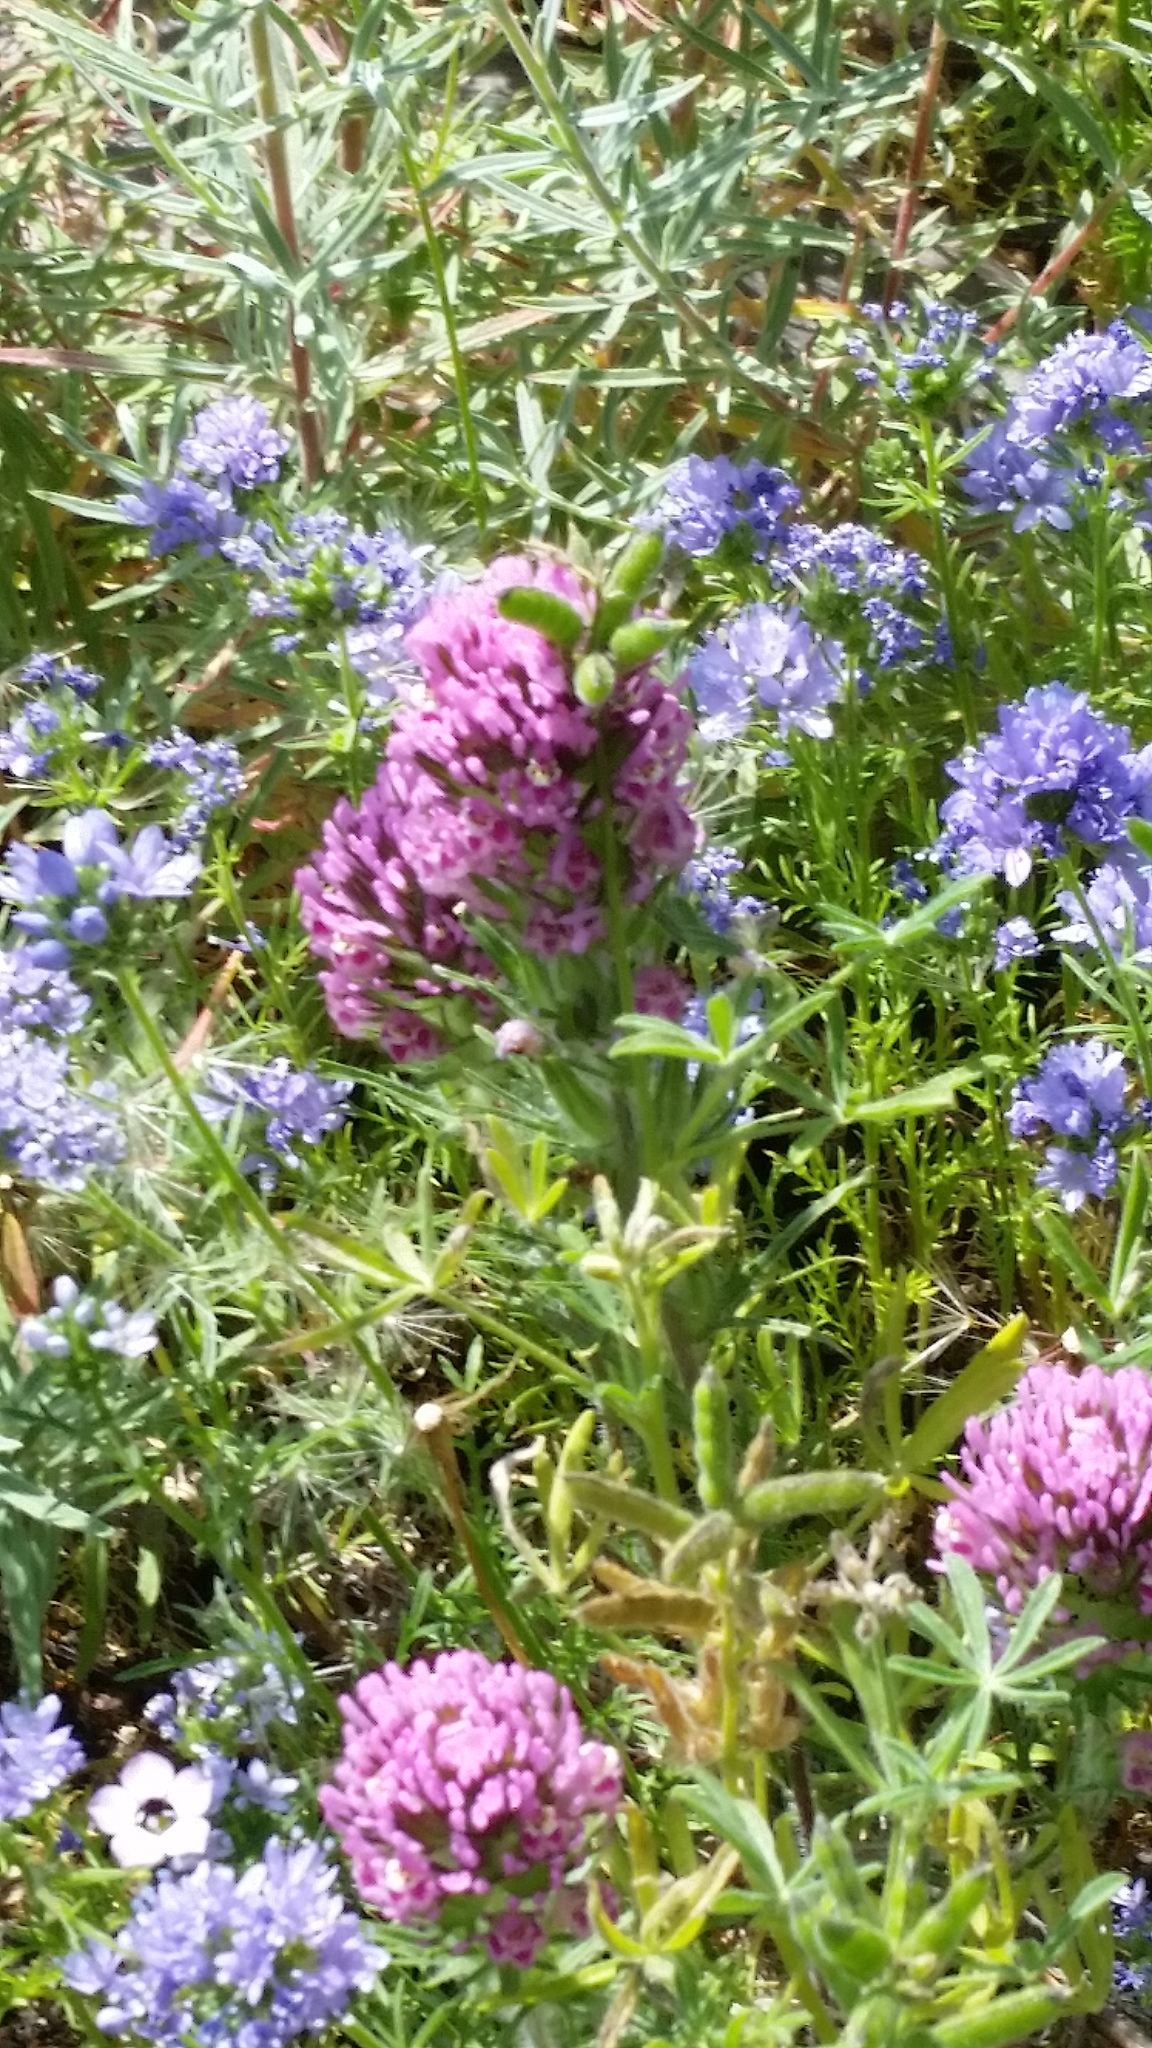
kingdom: Plantae
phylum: Tracheophyta
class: Magnoliopsida
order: Lamiales
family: Orobanchaceae
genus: Castilleja
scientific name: Castilleja exserta
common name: Purple owl-clover
